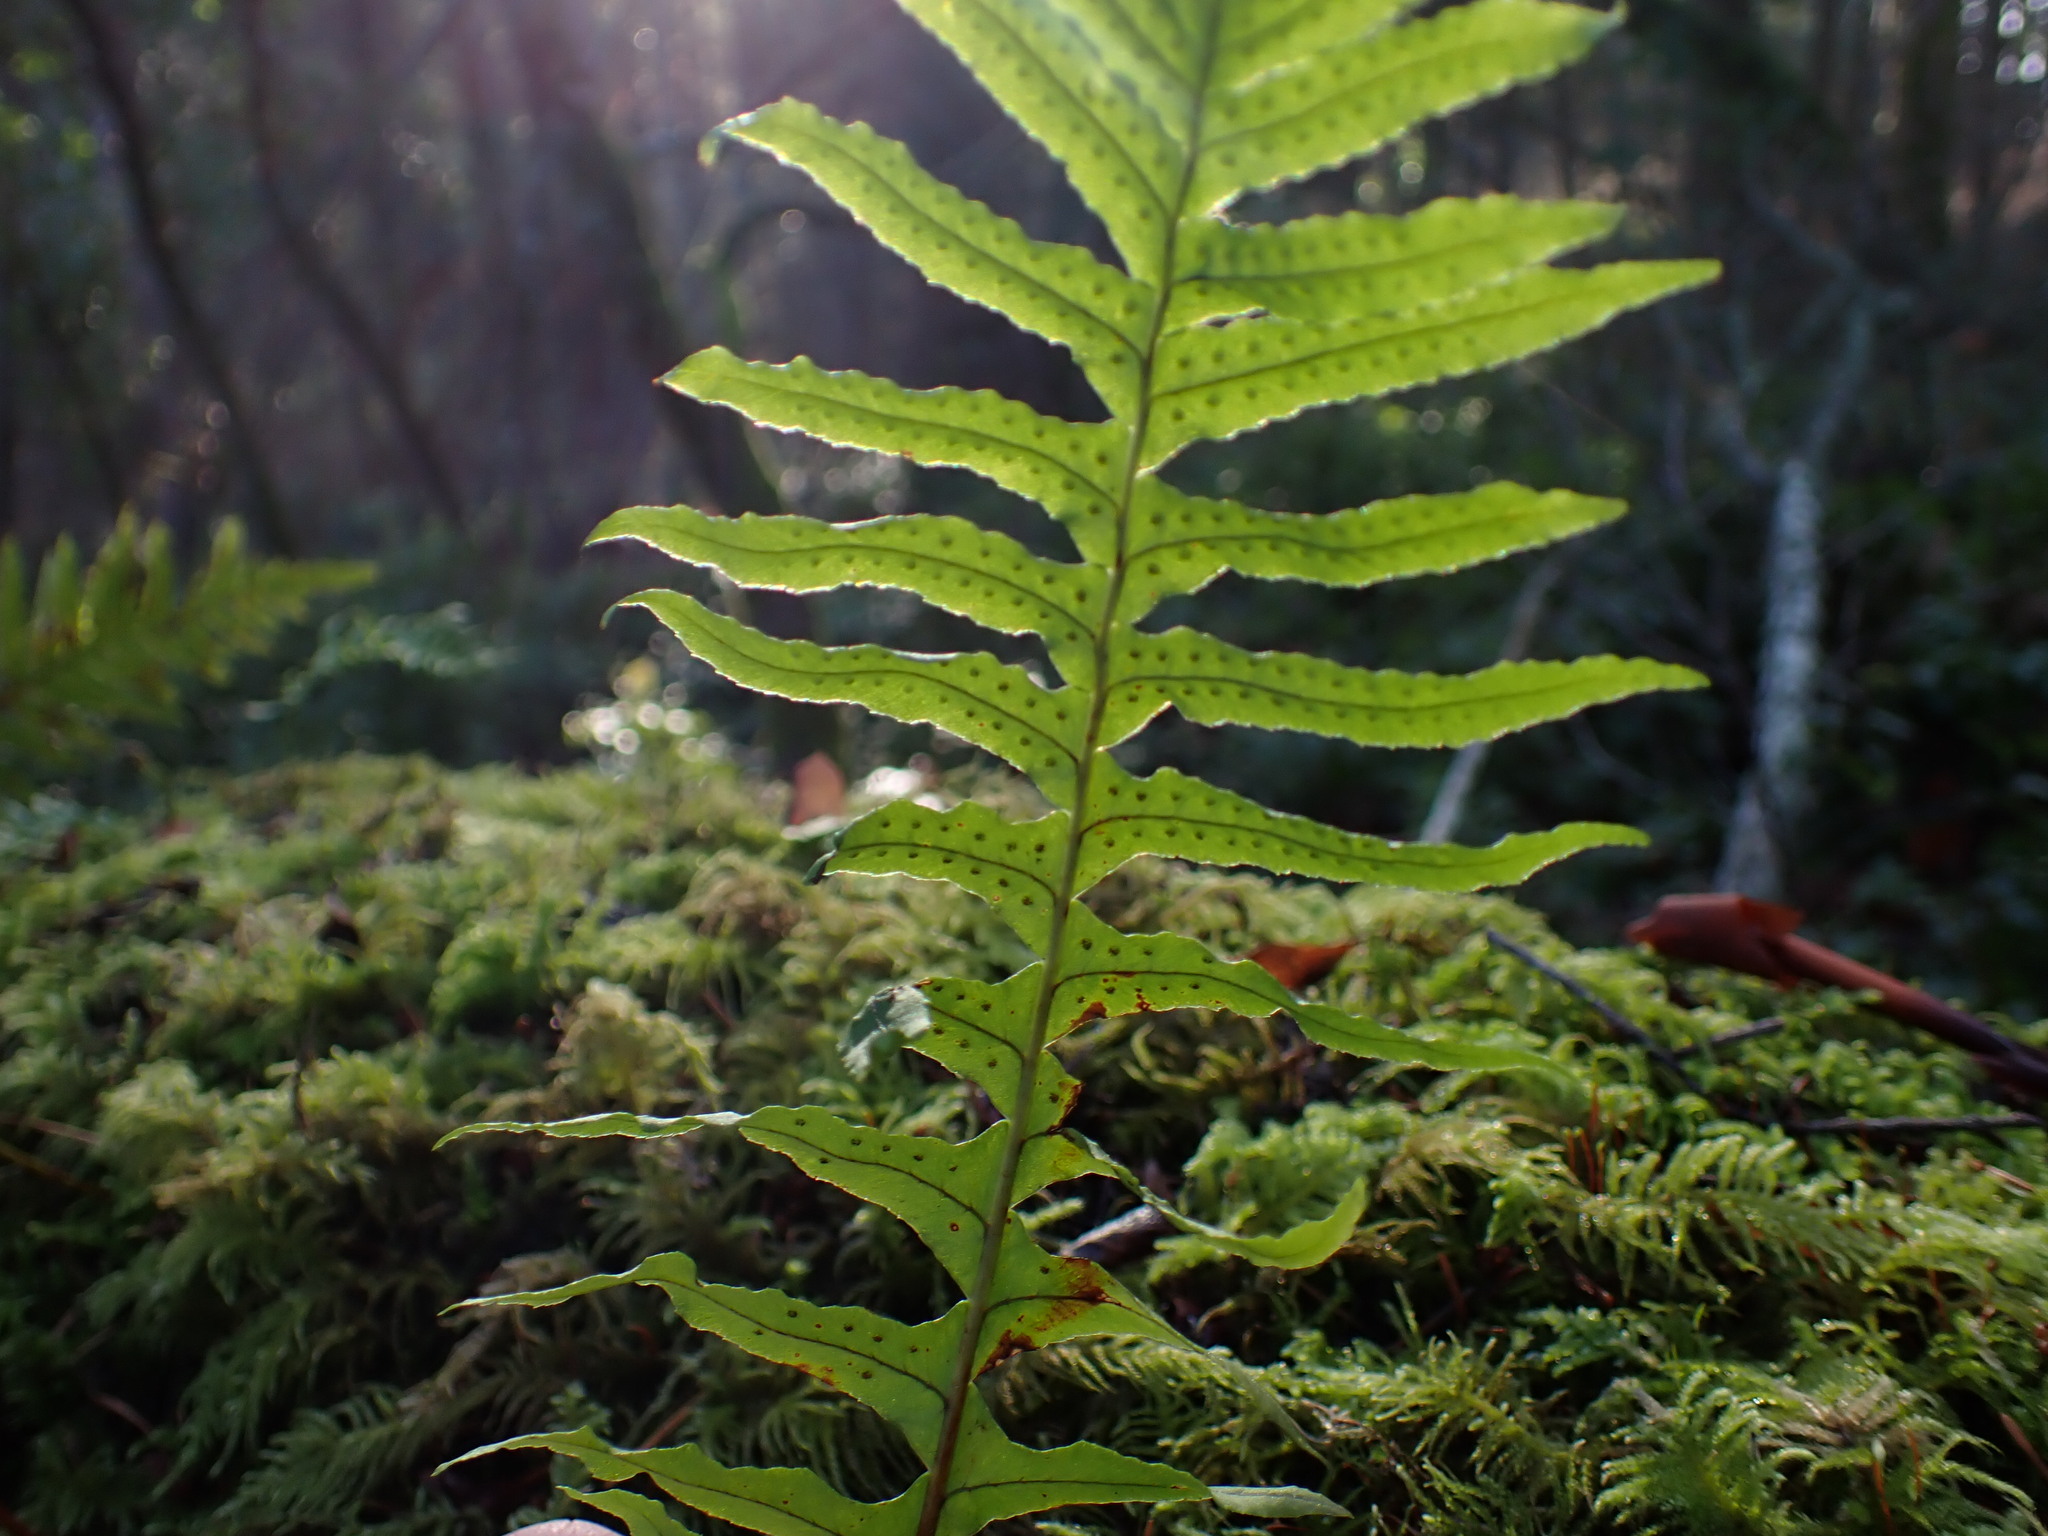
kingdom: Plantae
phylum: Tracheophyta
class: Polypodiopsida
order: Polypodiales
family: Polypodiaceae
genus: Polypodium
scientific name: Polypodium glycyrrhiza
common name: Licorice fern
